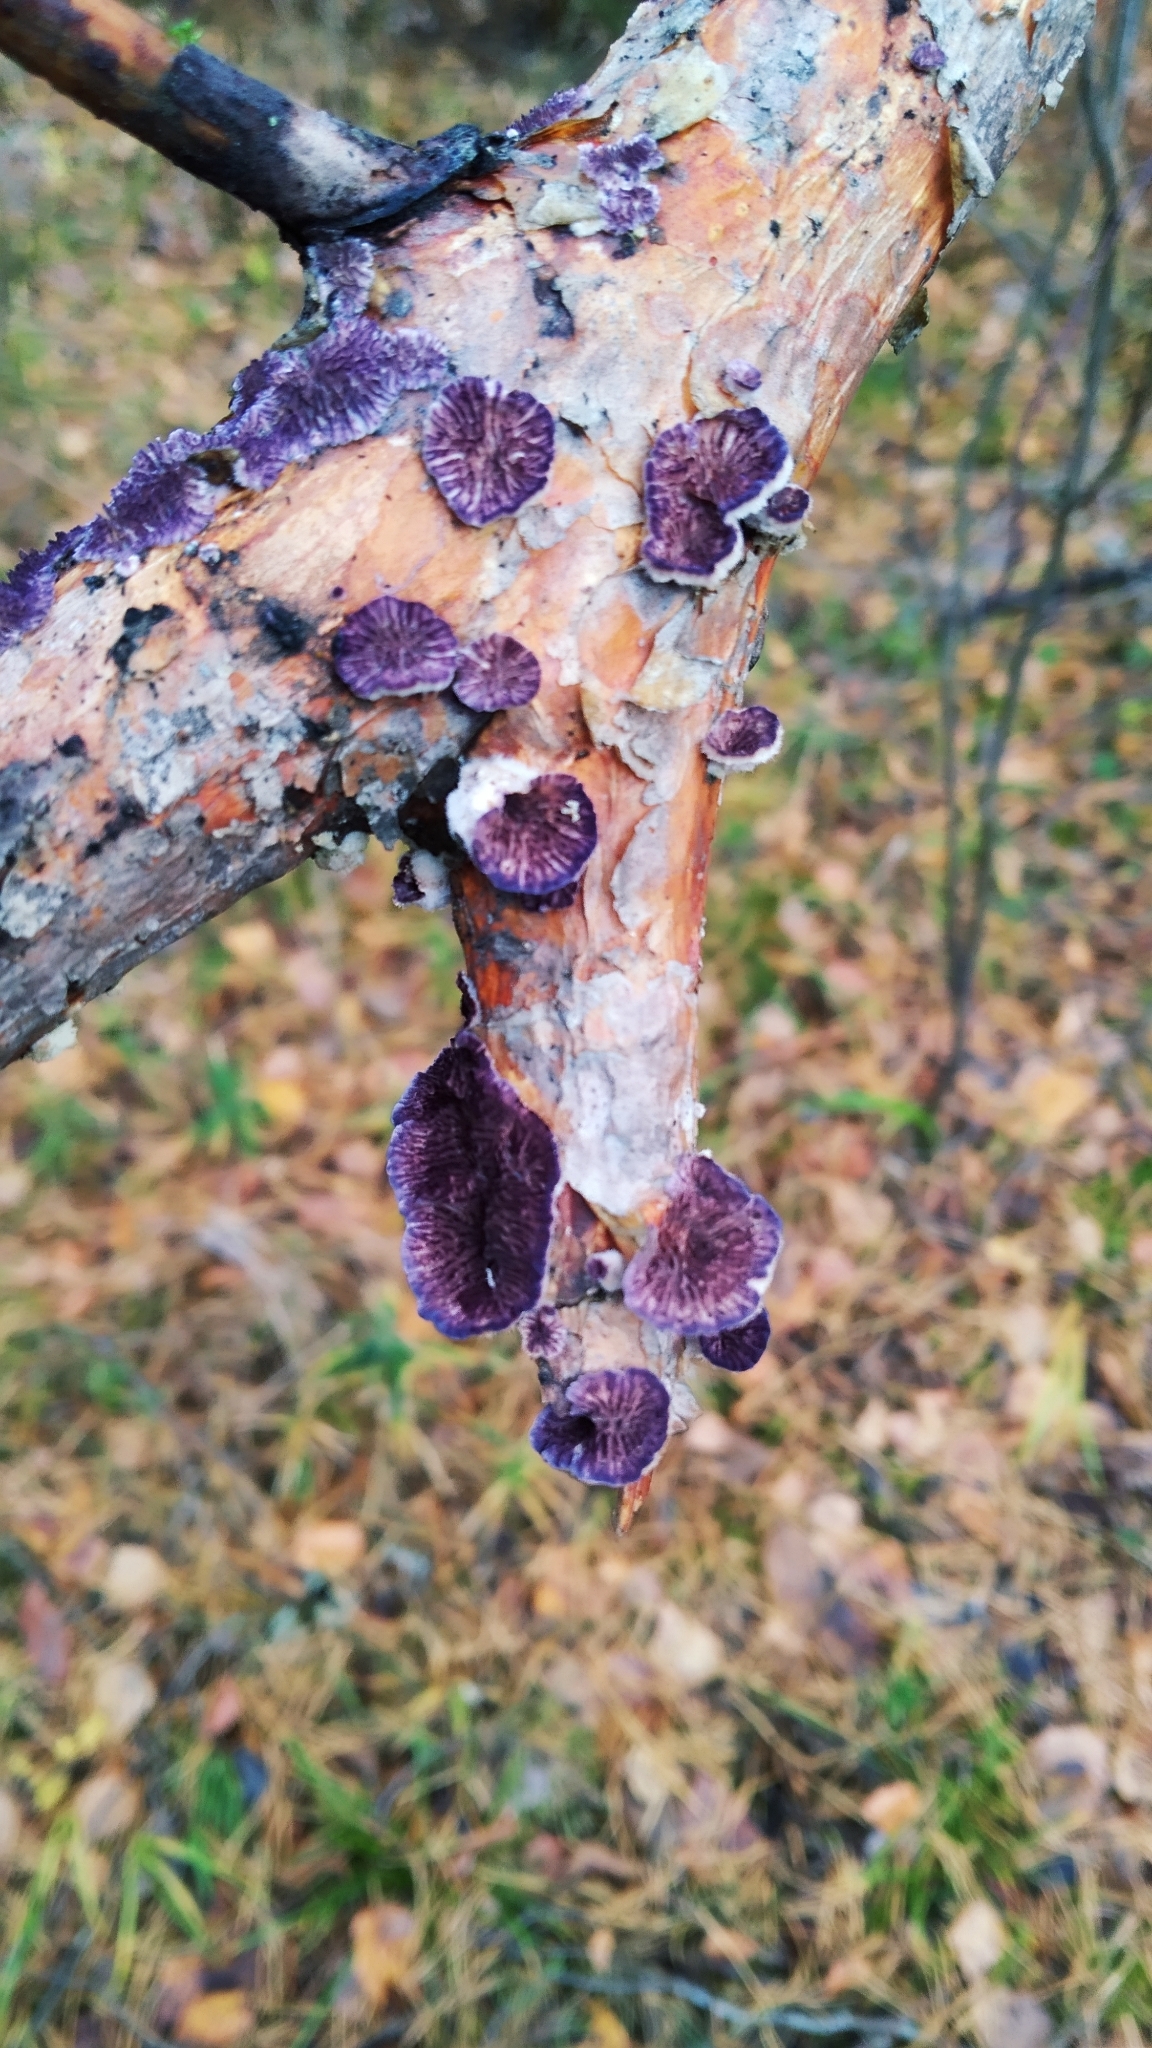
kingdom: Fungi
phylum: Basidiomycota
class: Agaricomycetes
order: Hymenochaetales
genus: Trichaptum
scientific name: Trichaptum fuscoviolaceum
